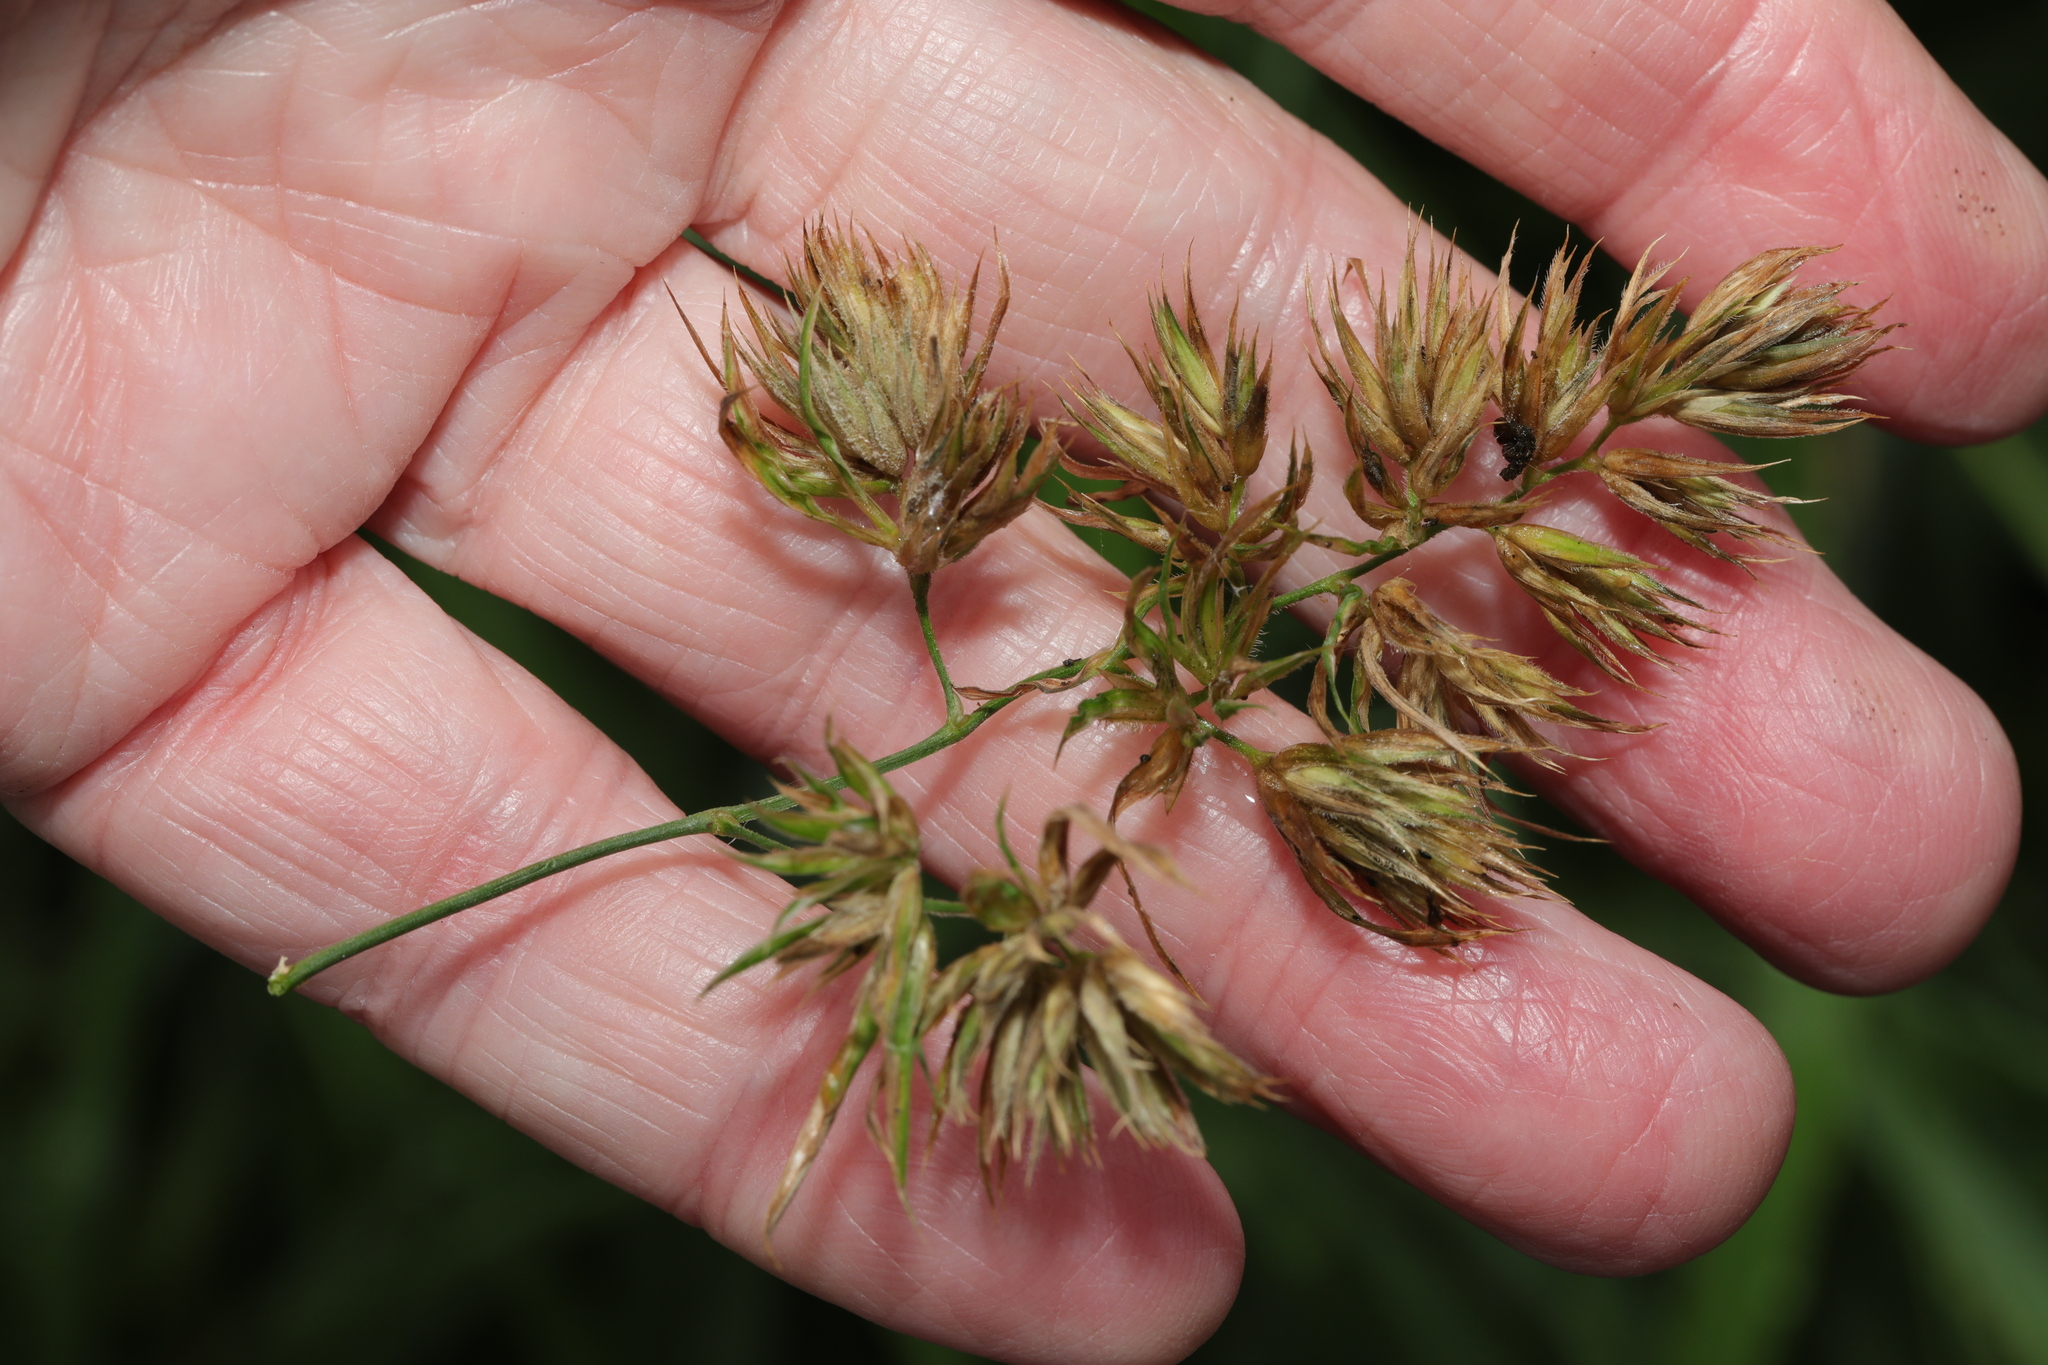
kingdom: Plantae
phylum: Tracheophyta
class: Liliopsida
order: Poales
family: Poaceae
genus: Dactylis
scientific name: Dactylis glomerata
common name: Orchardgrass
